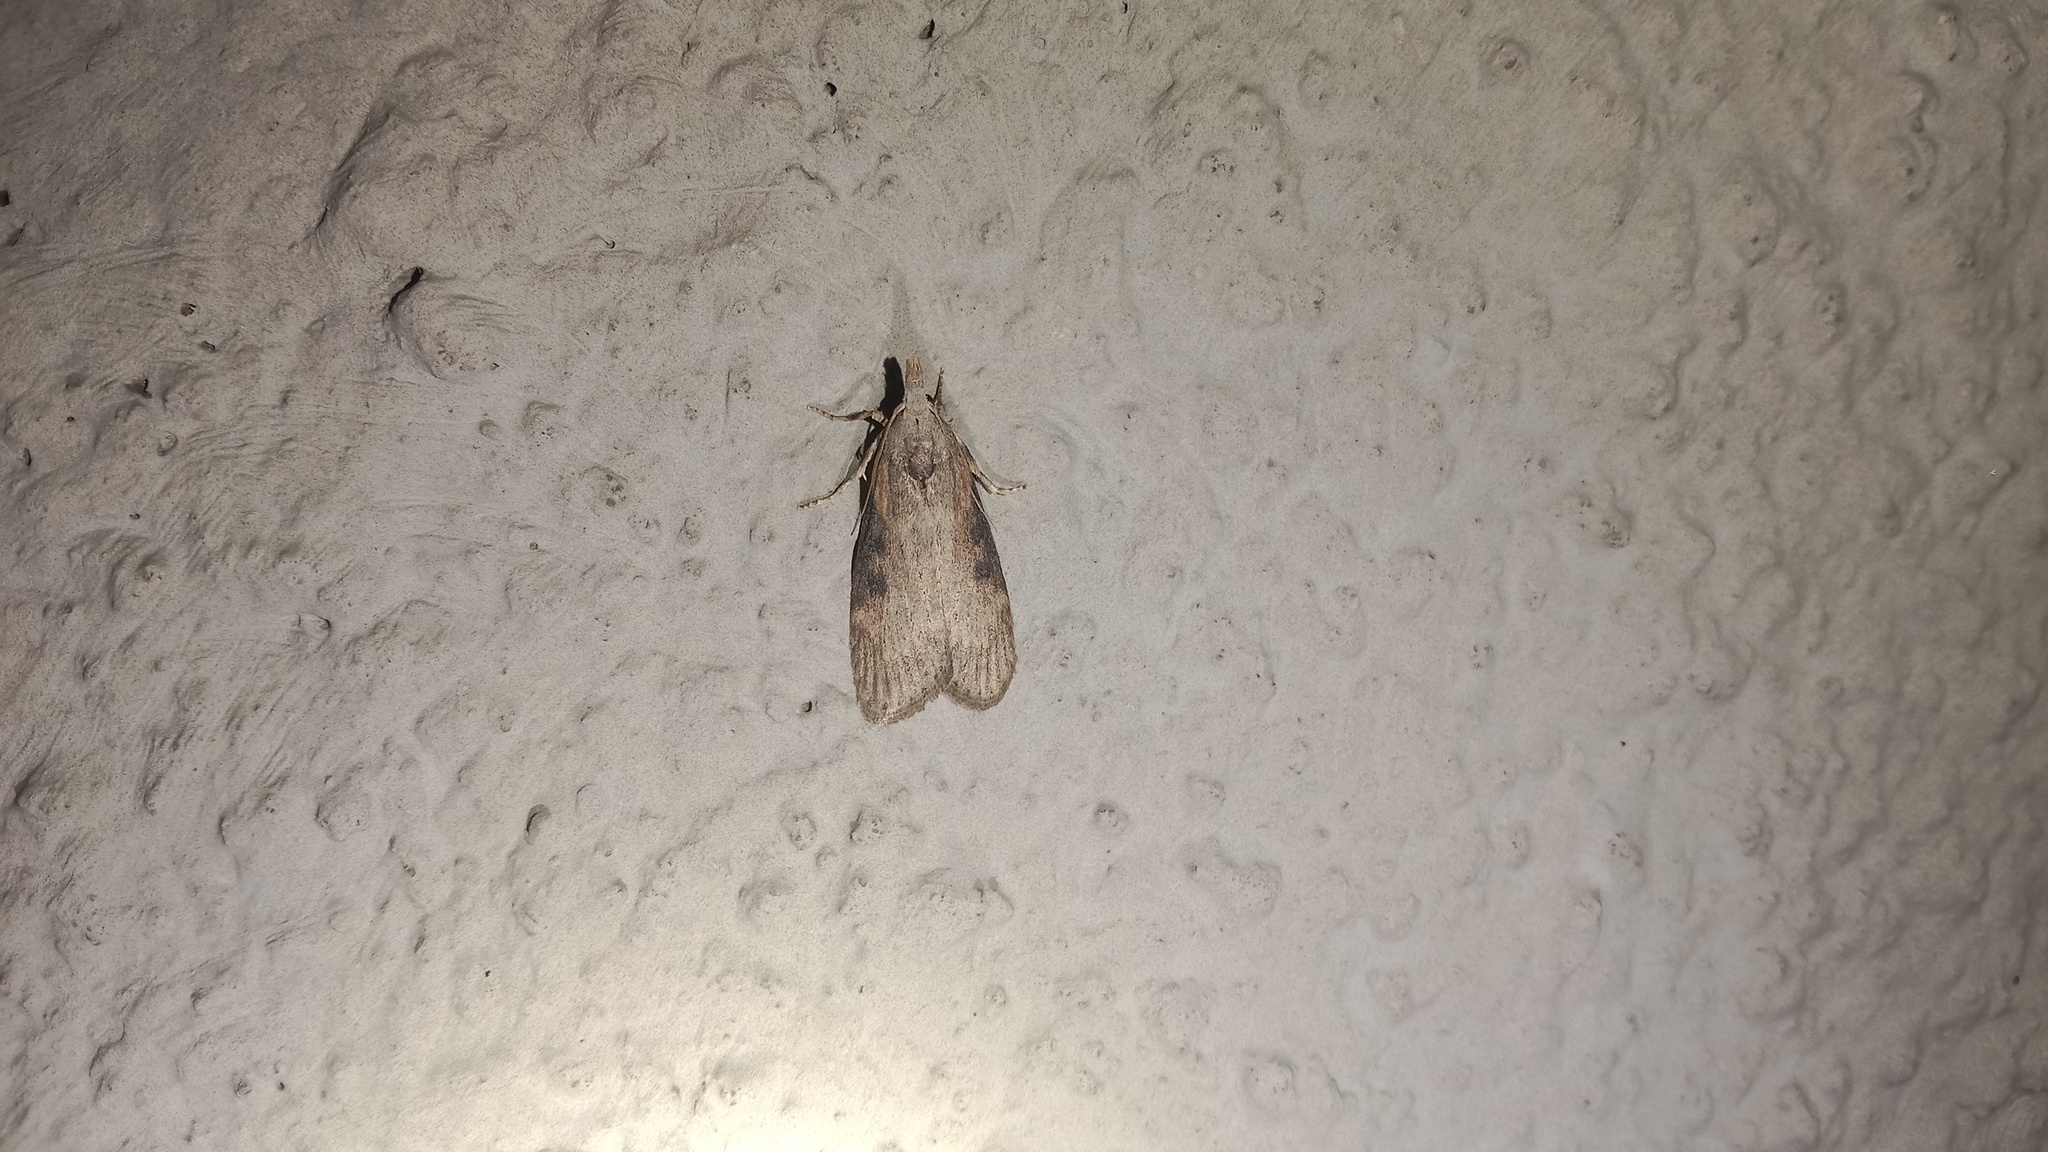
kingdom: Animalia
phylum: Arthropoda
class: Insecta
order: Lepidoptera
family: Pyralidae
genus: Lamoria
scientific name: Lamoria anella
